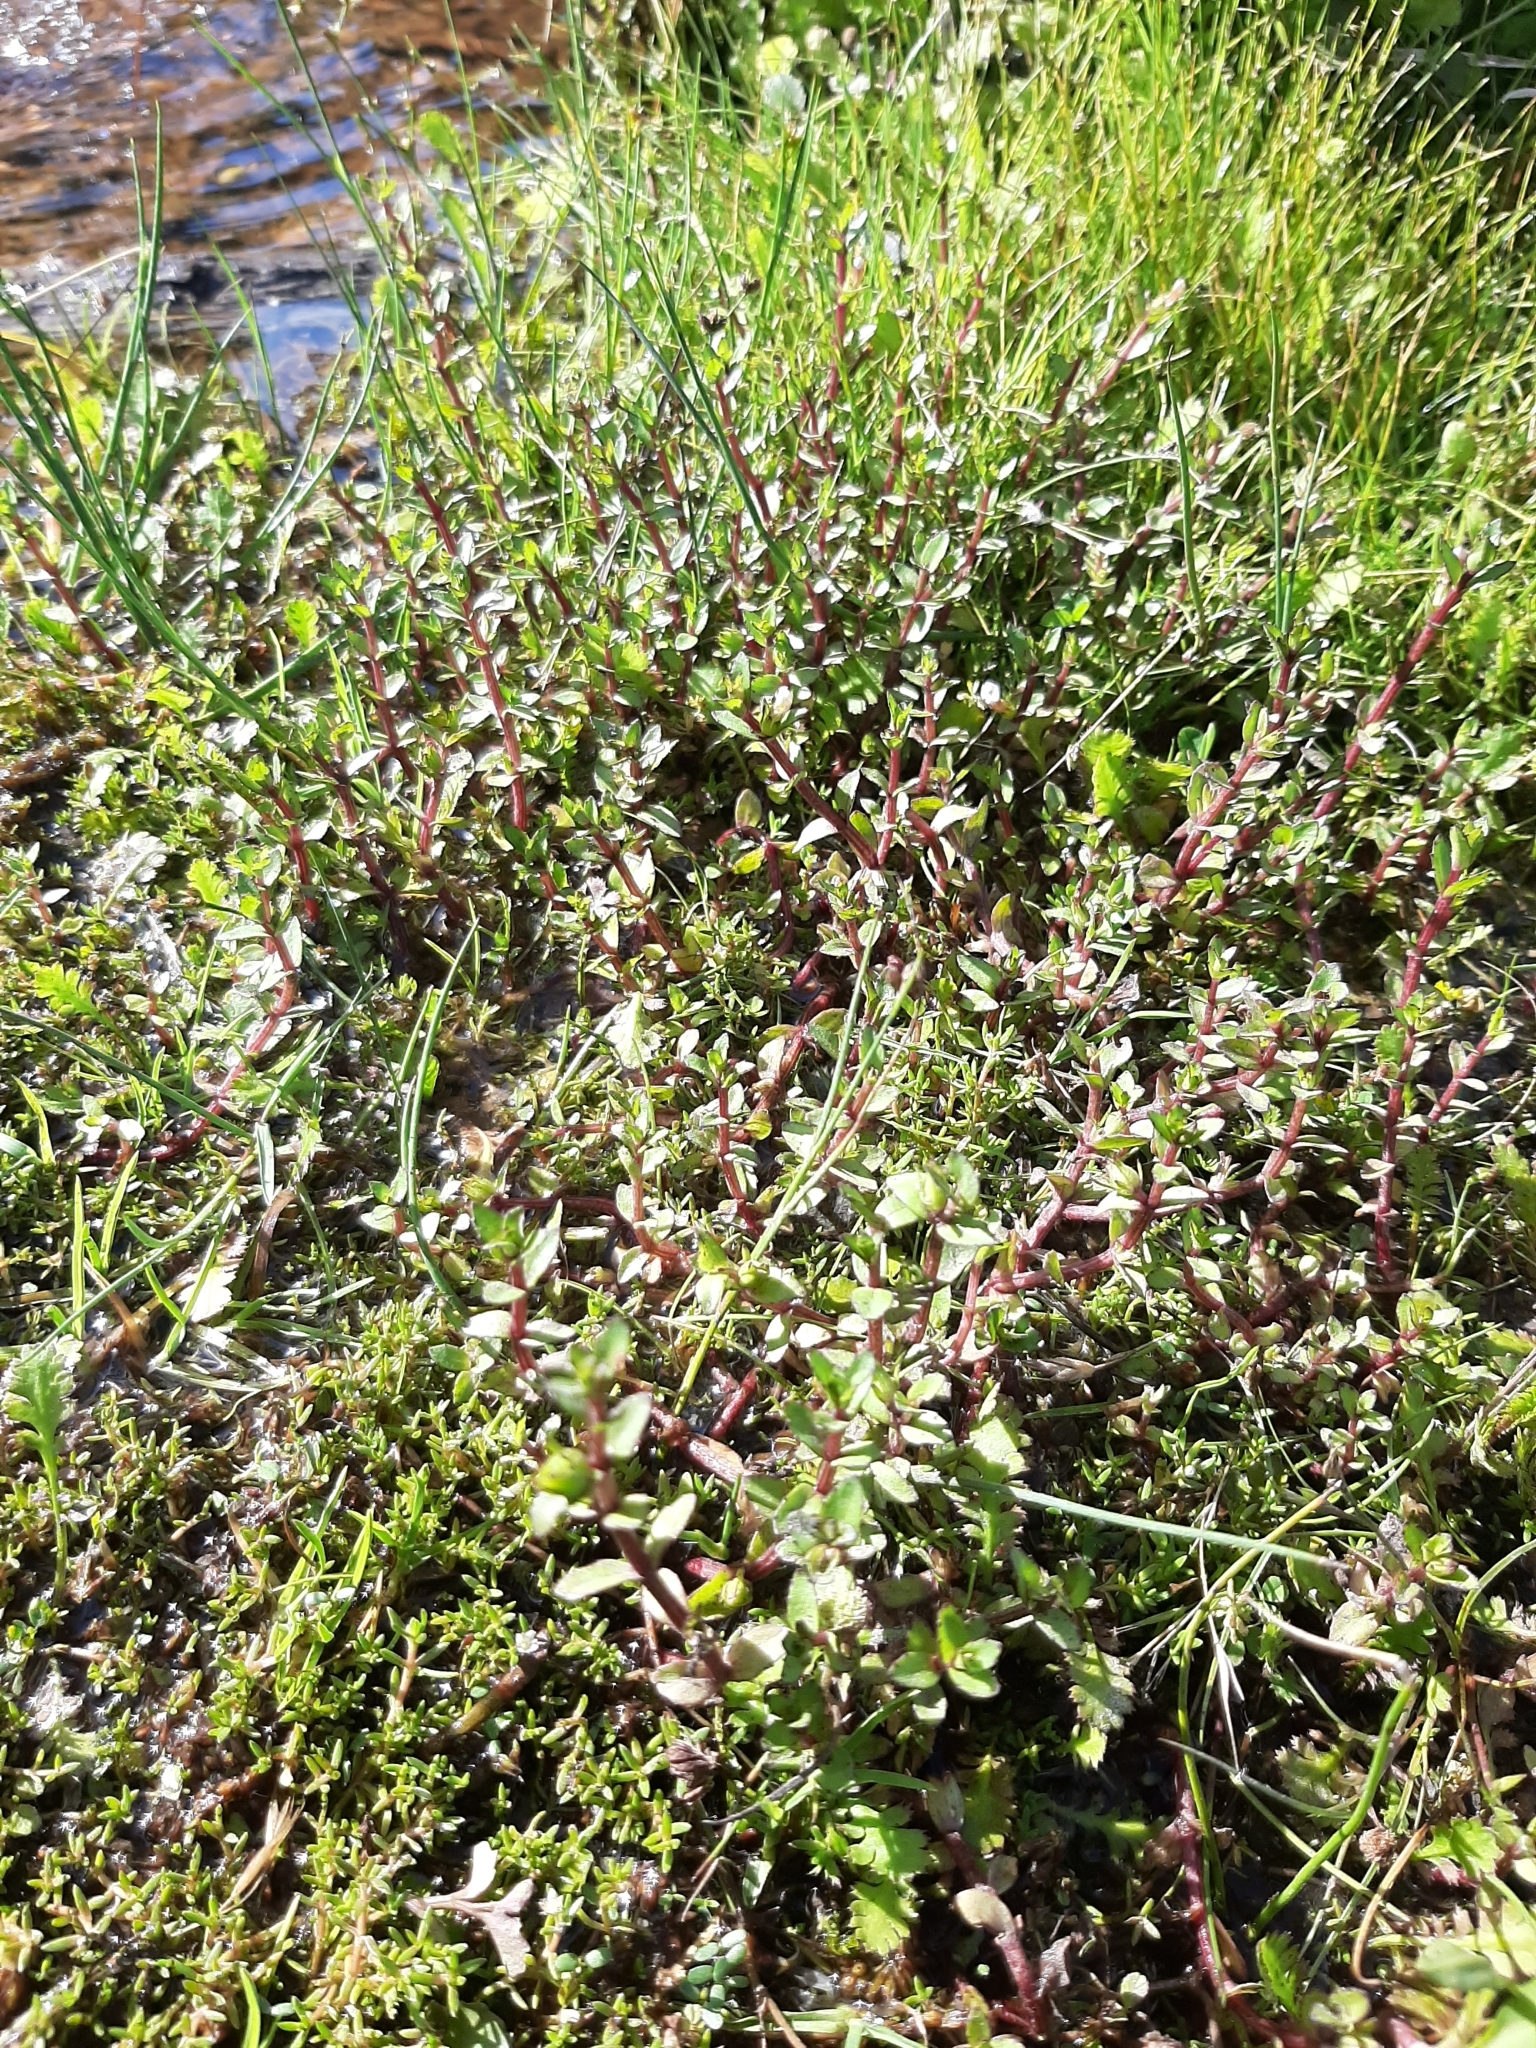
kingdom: Plantae
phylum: Tracheophyta
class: Magnoliopsida
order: Lamiales
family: Plantaginaceae
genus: Gratiola
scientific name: Gratiola sexdentata
